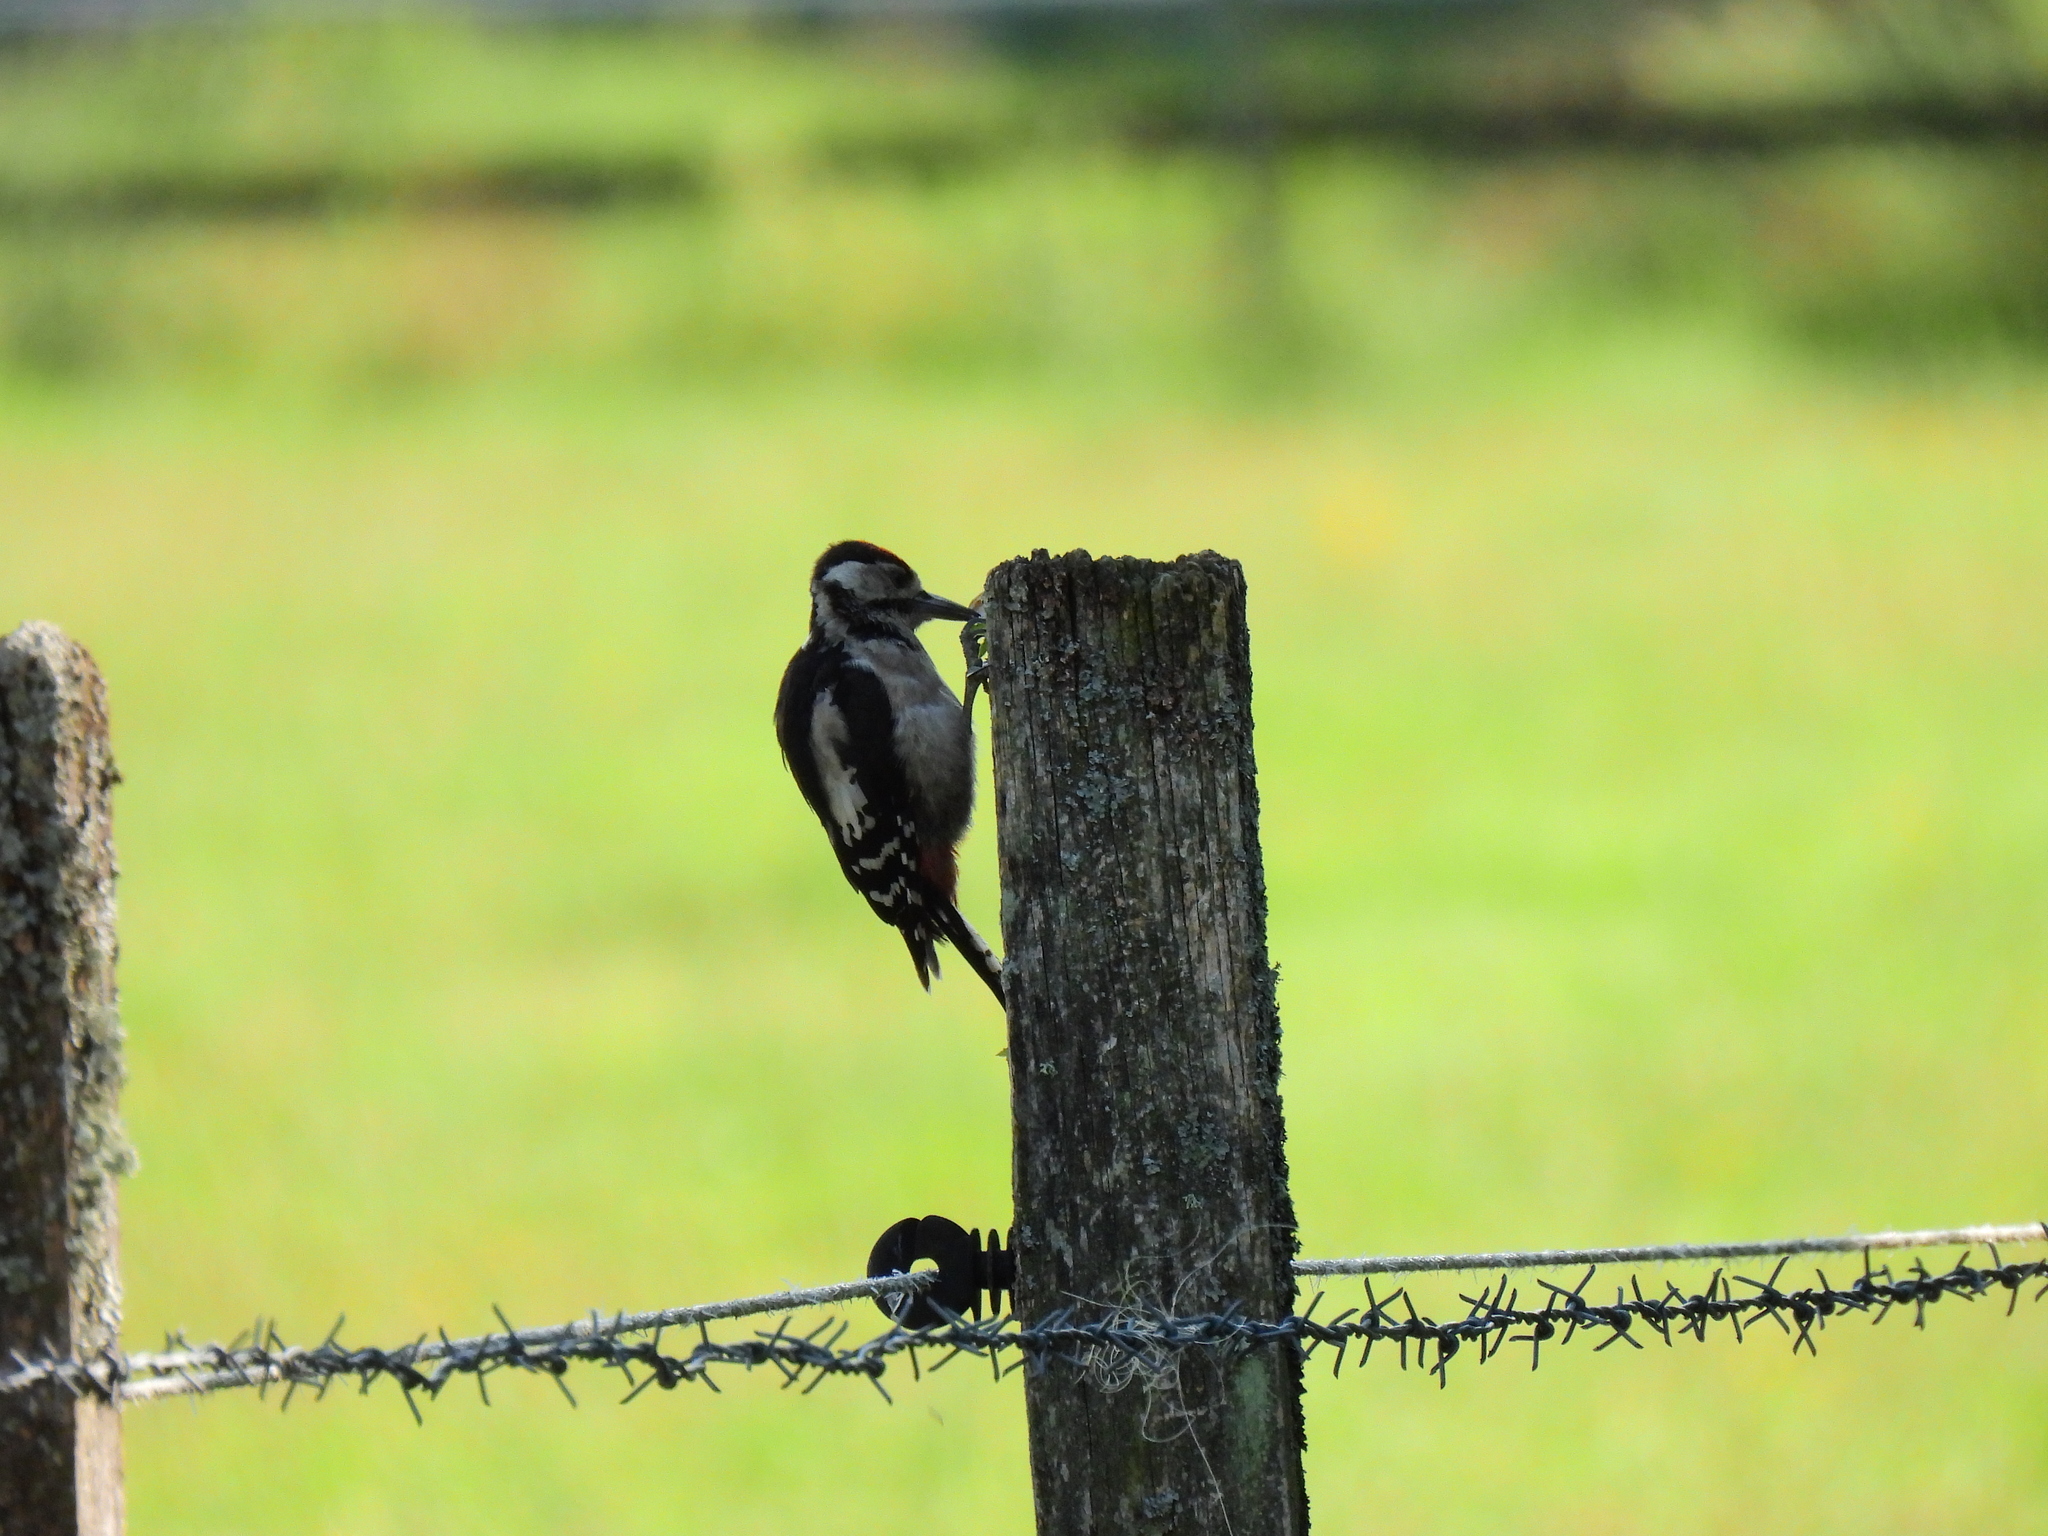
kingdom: Animalia
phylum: Chordata
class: Aves
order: Piciformes
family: Picidae
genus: Dendrocopos
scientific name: Dendrocopos major
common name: Great spotted woodpecker
